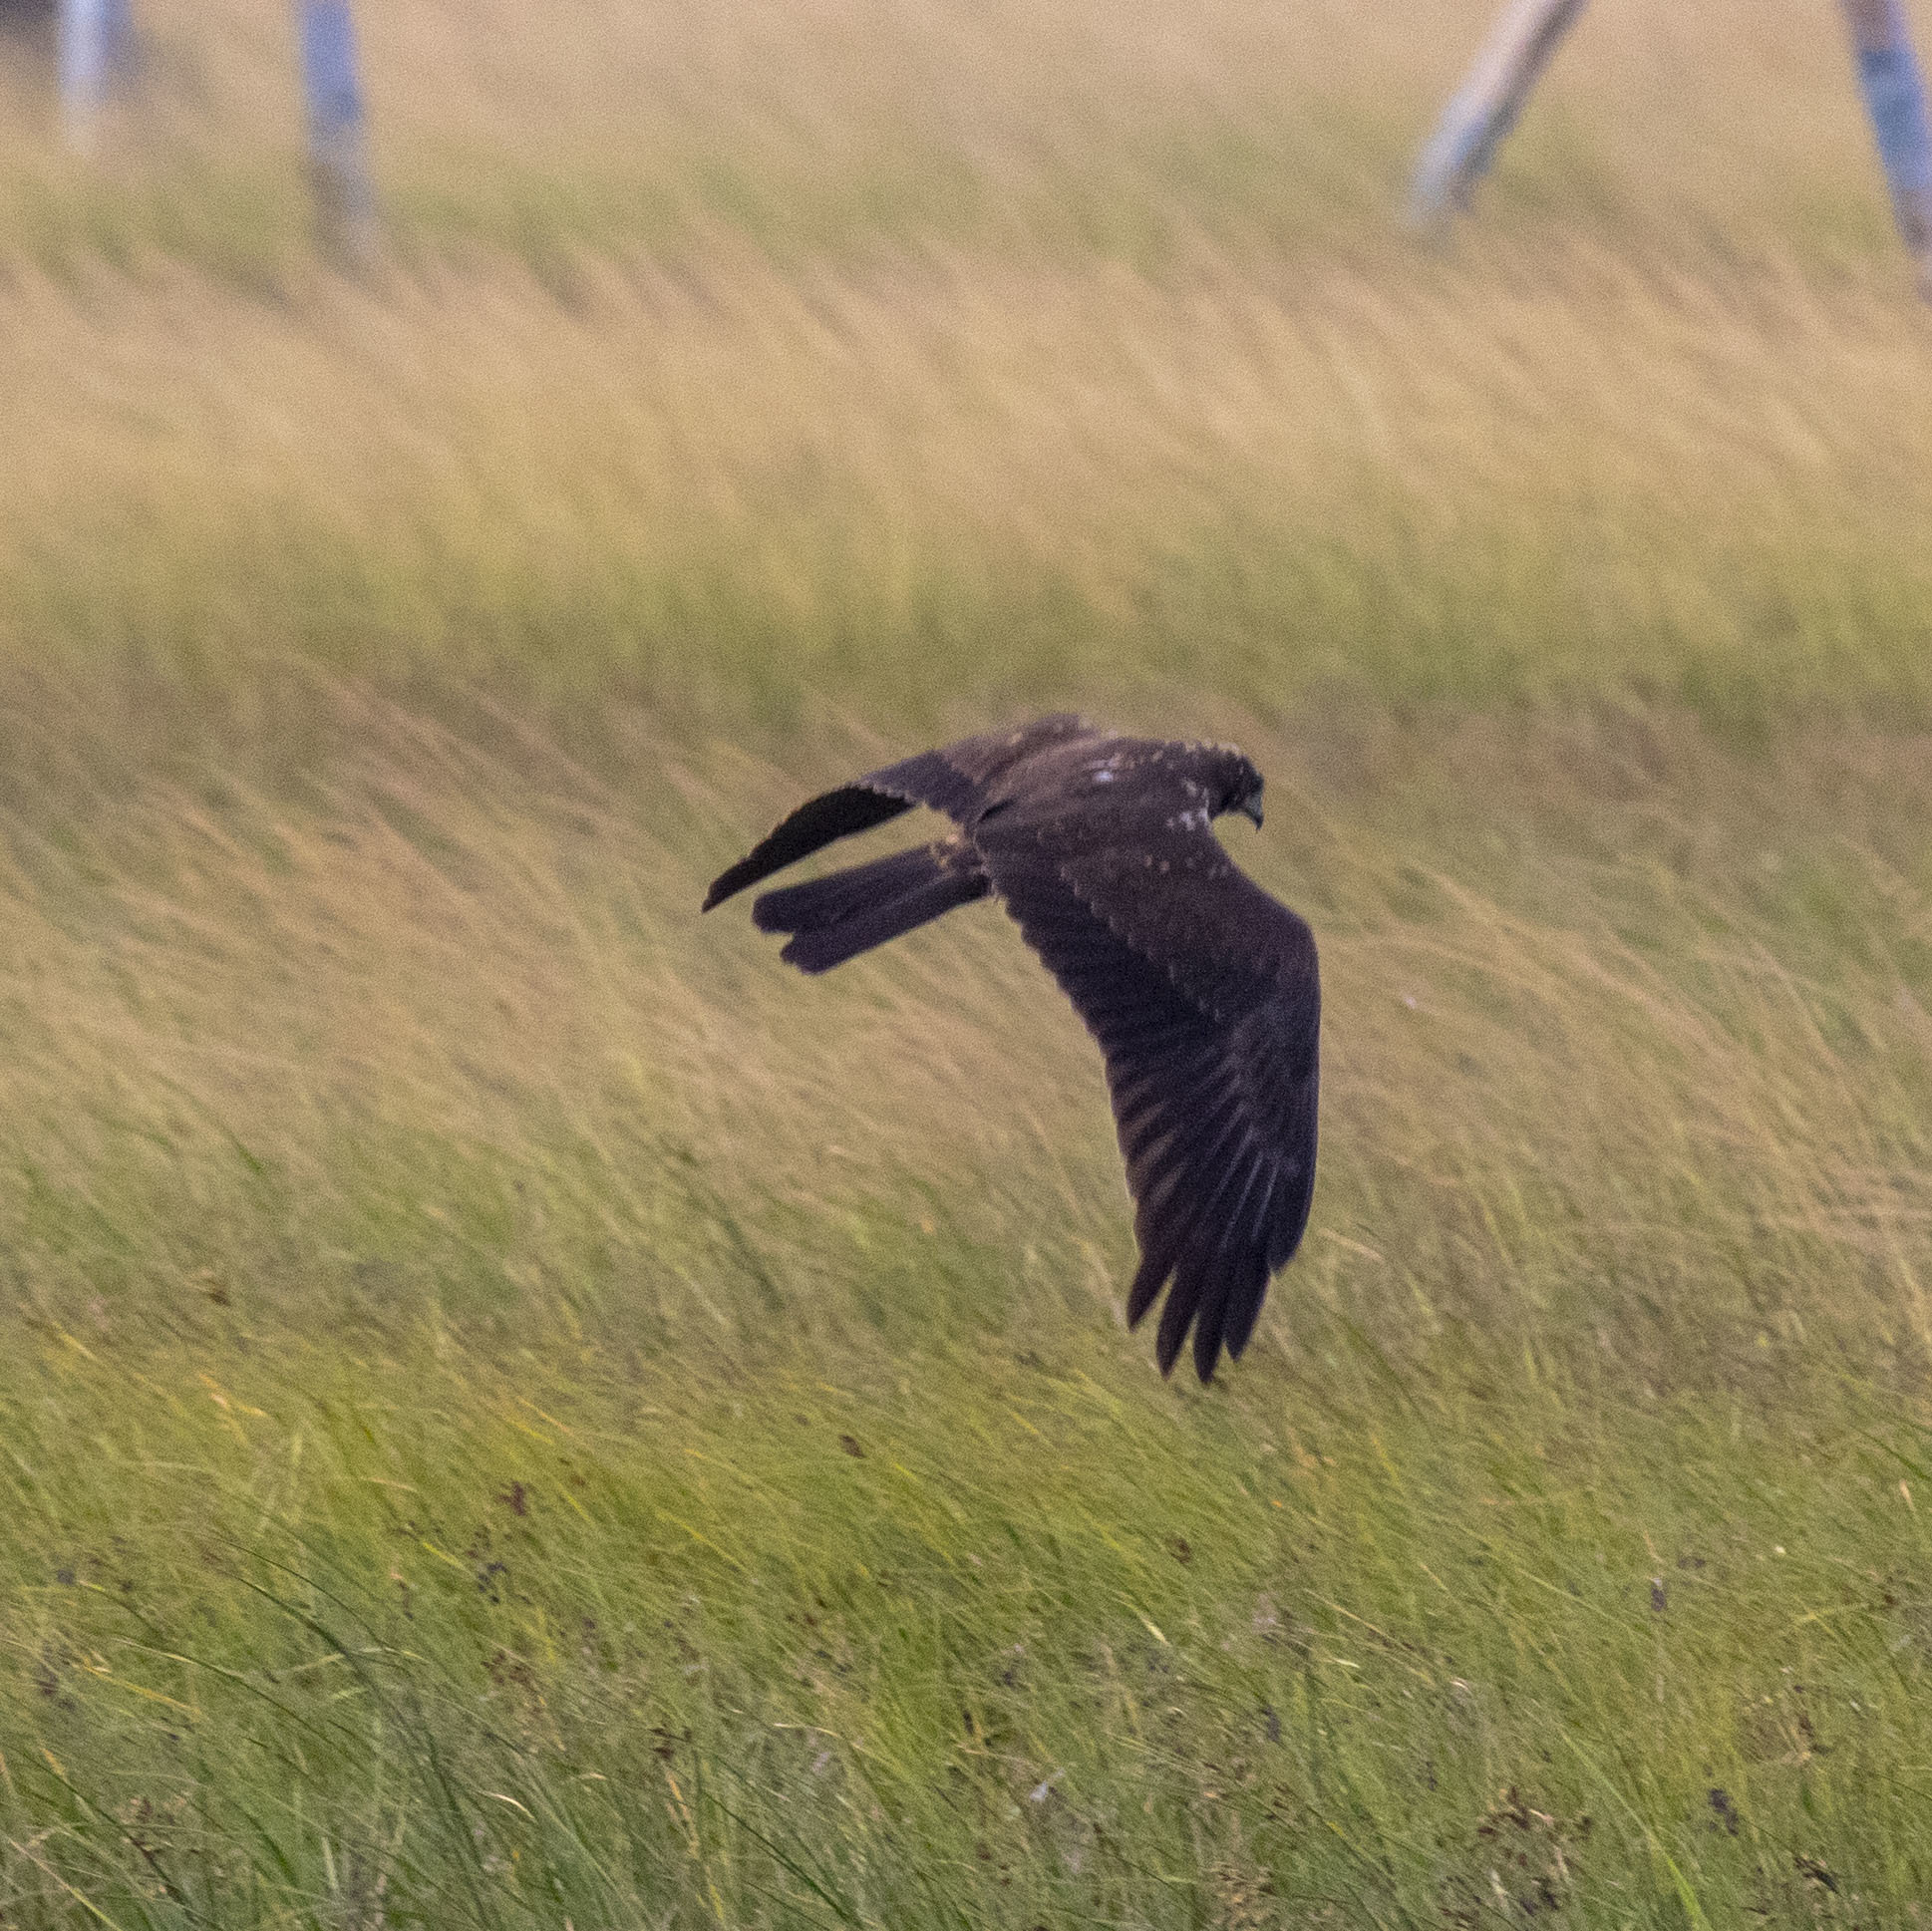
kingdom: Animalia
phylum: Chordata
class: Aves
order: Accipitriformes
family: Accipitridae
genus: Circus
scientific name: Circus aeruginosus
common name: Western marsh harrier
